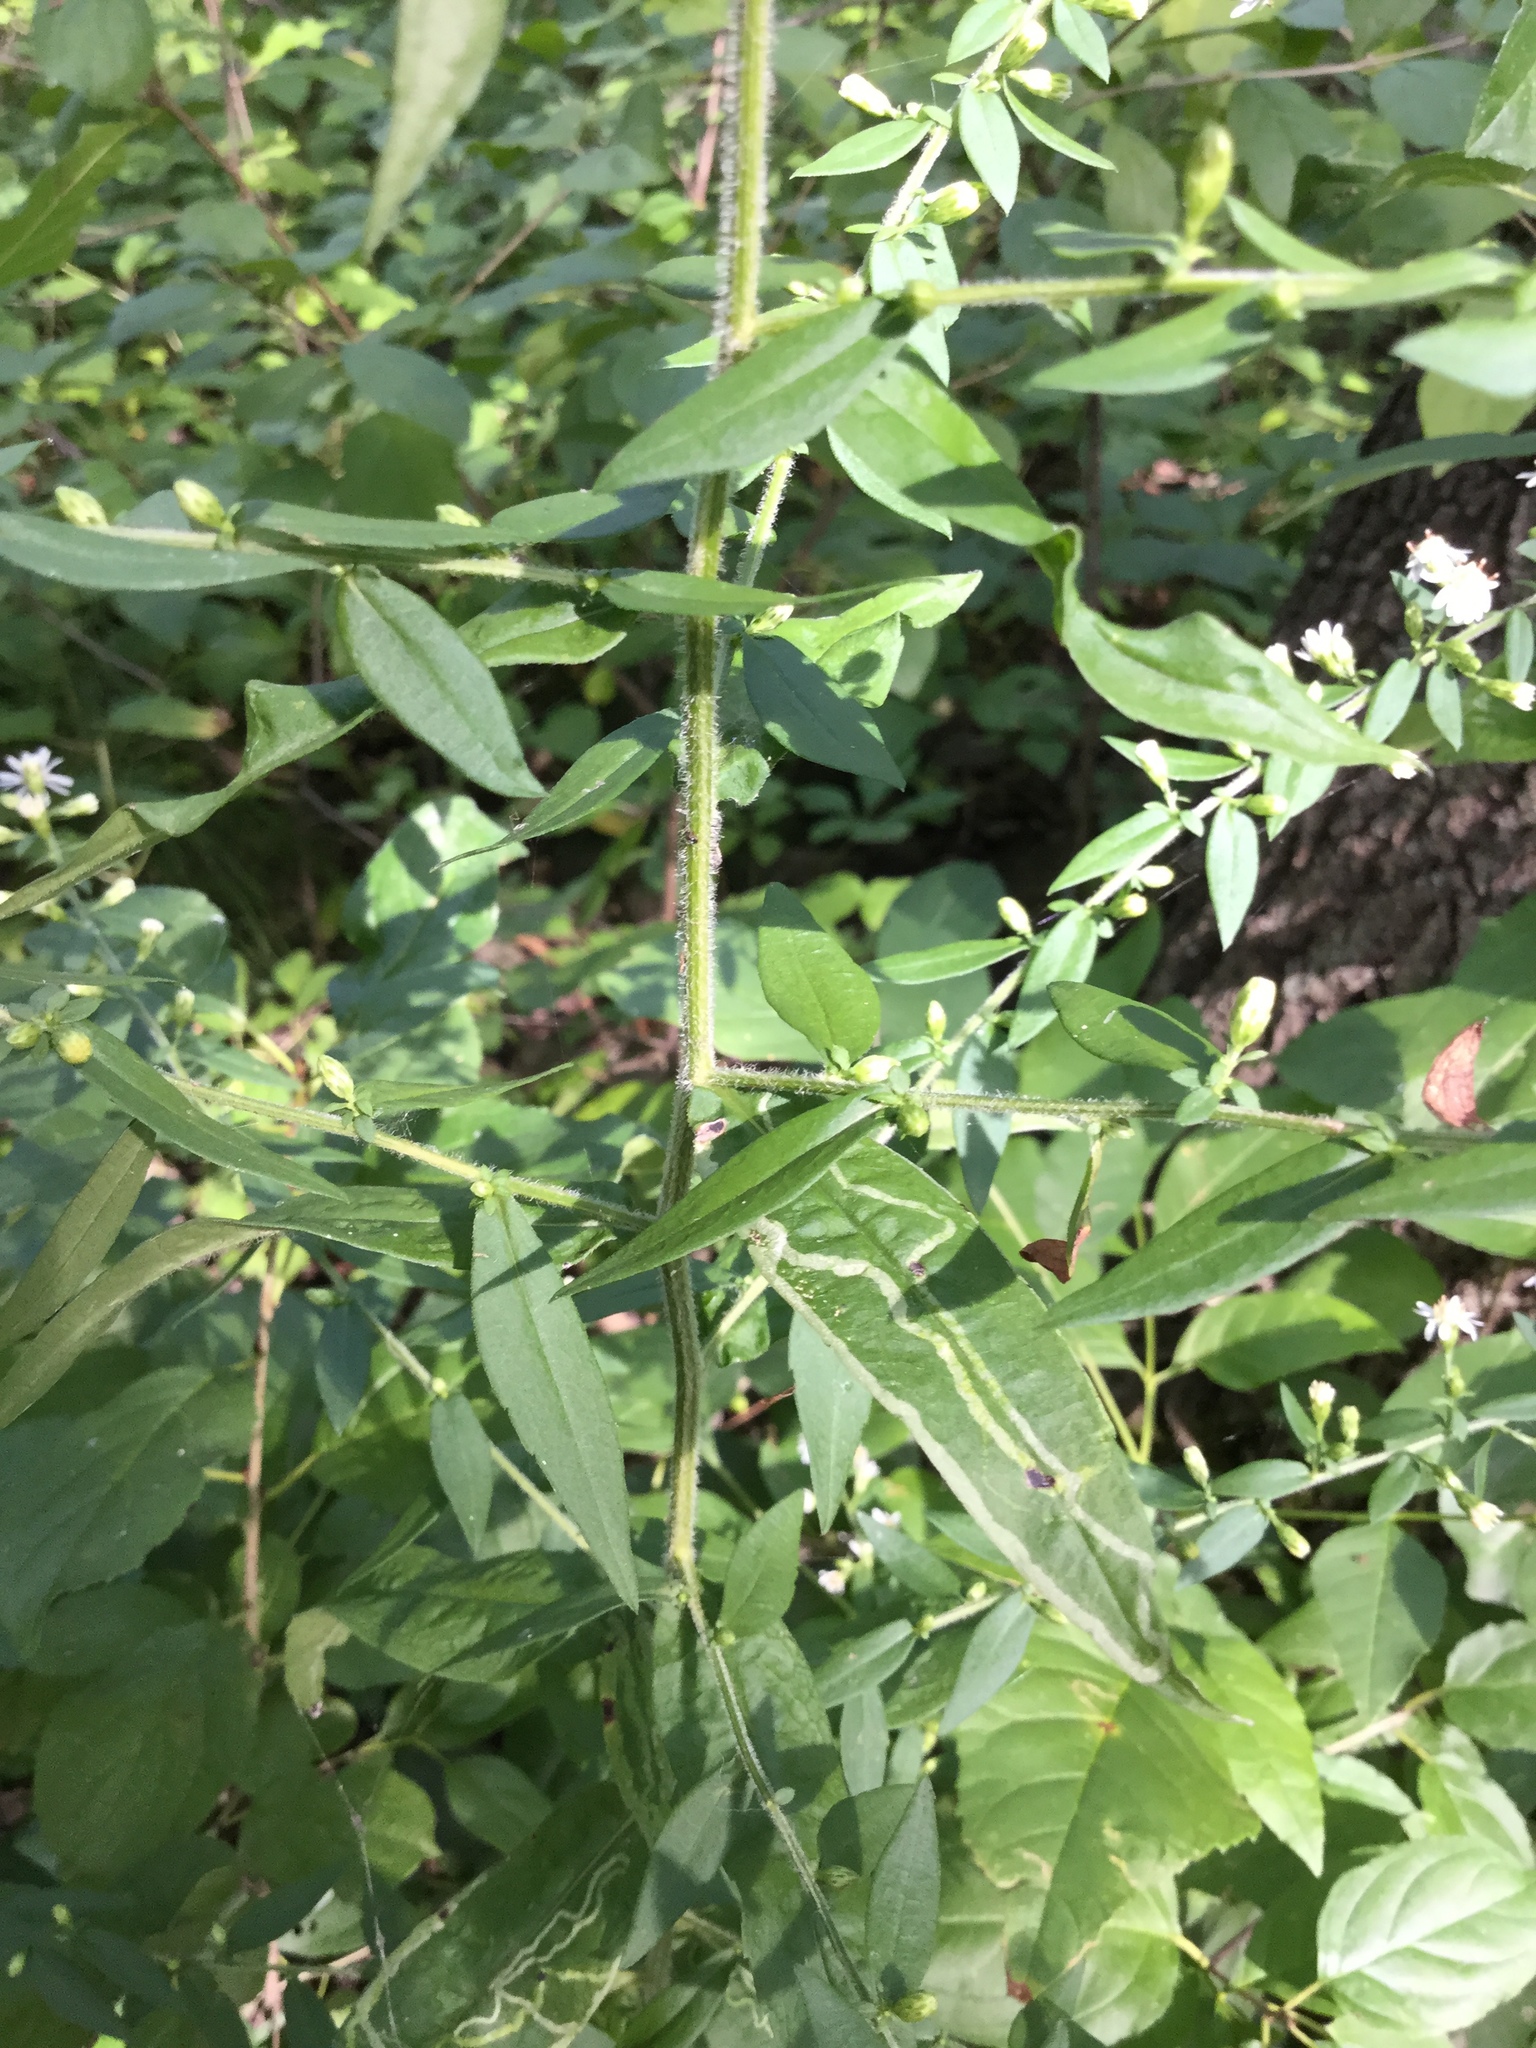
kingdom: Plantae
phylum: Tracheophyta
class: Magnoliopsida
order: Asterales
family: Asteraceae
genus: Symphyotrichum
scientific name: Symphyotrichum lateriflorum
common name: Calico aster
